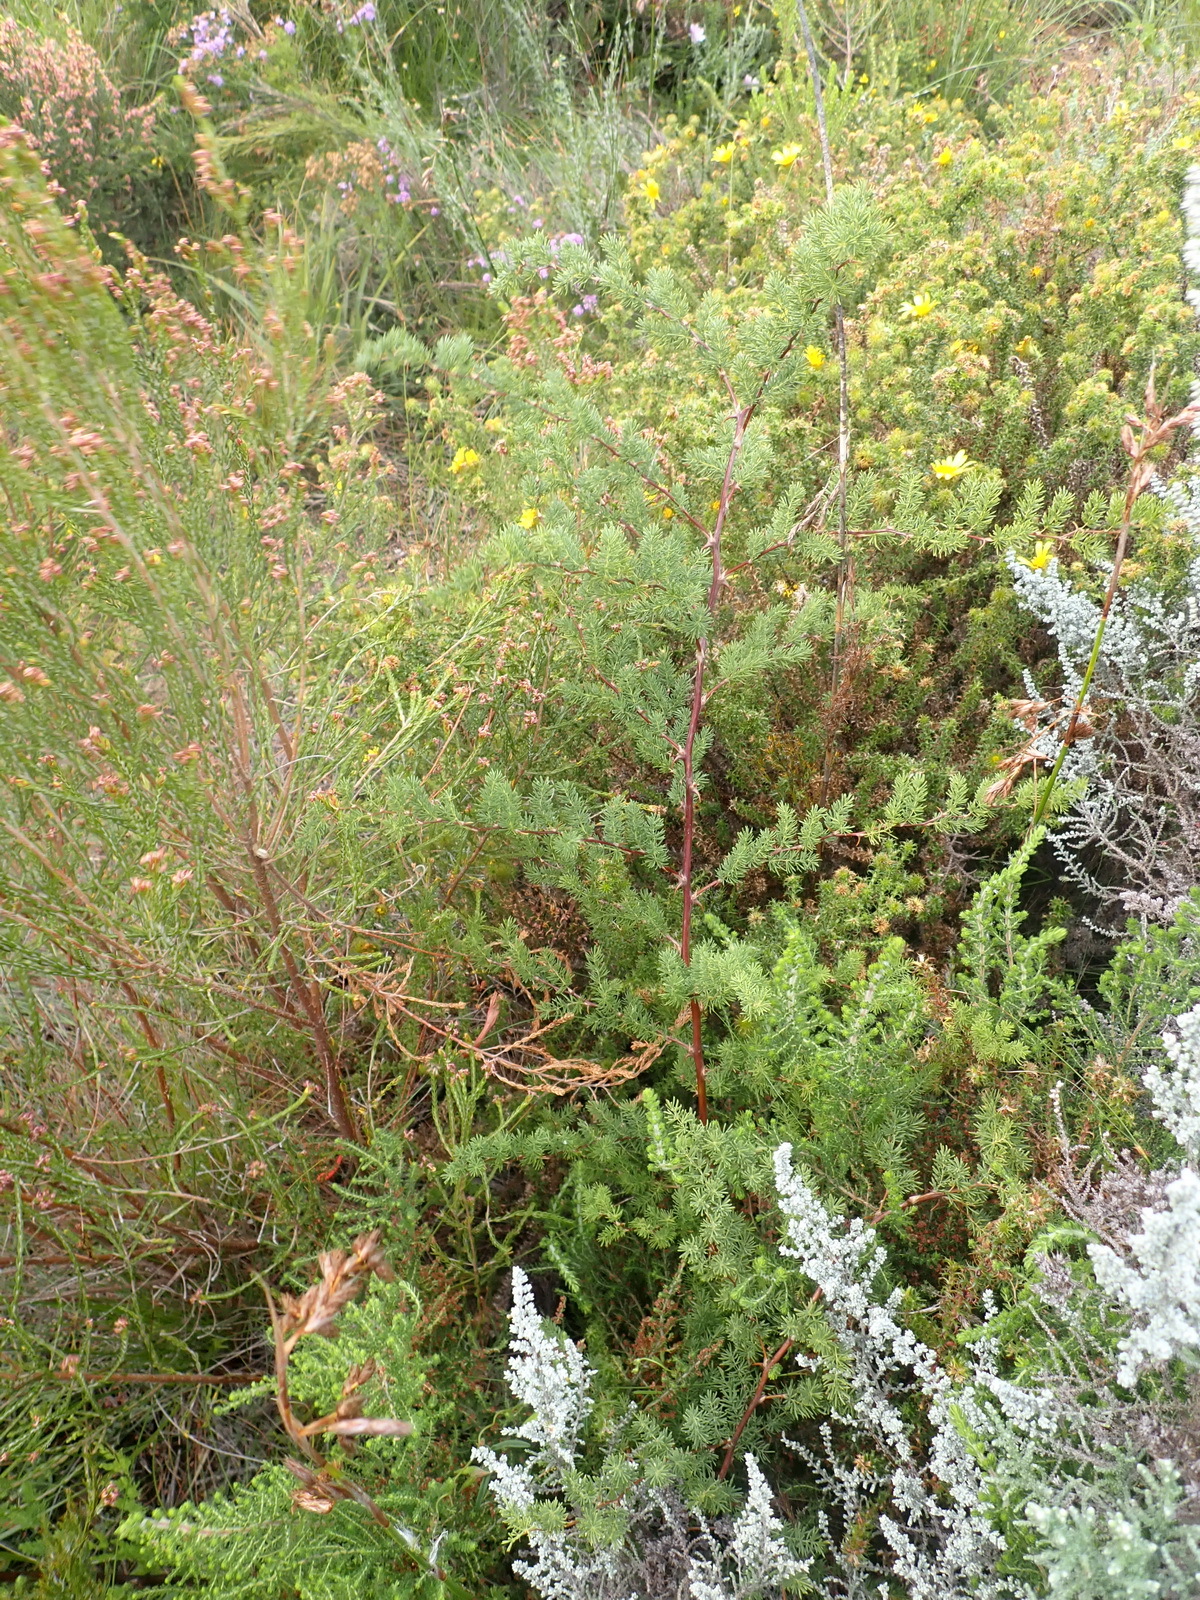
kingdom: Plantae
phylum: Tracheophyta
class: Liliopsida
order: Asparagales
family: Asparagaceae
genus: Asparagus
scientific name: Asparagus rubicundus
